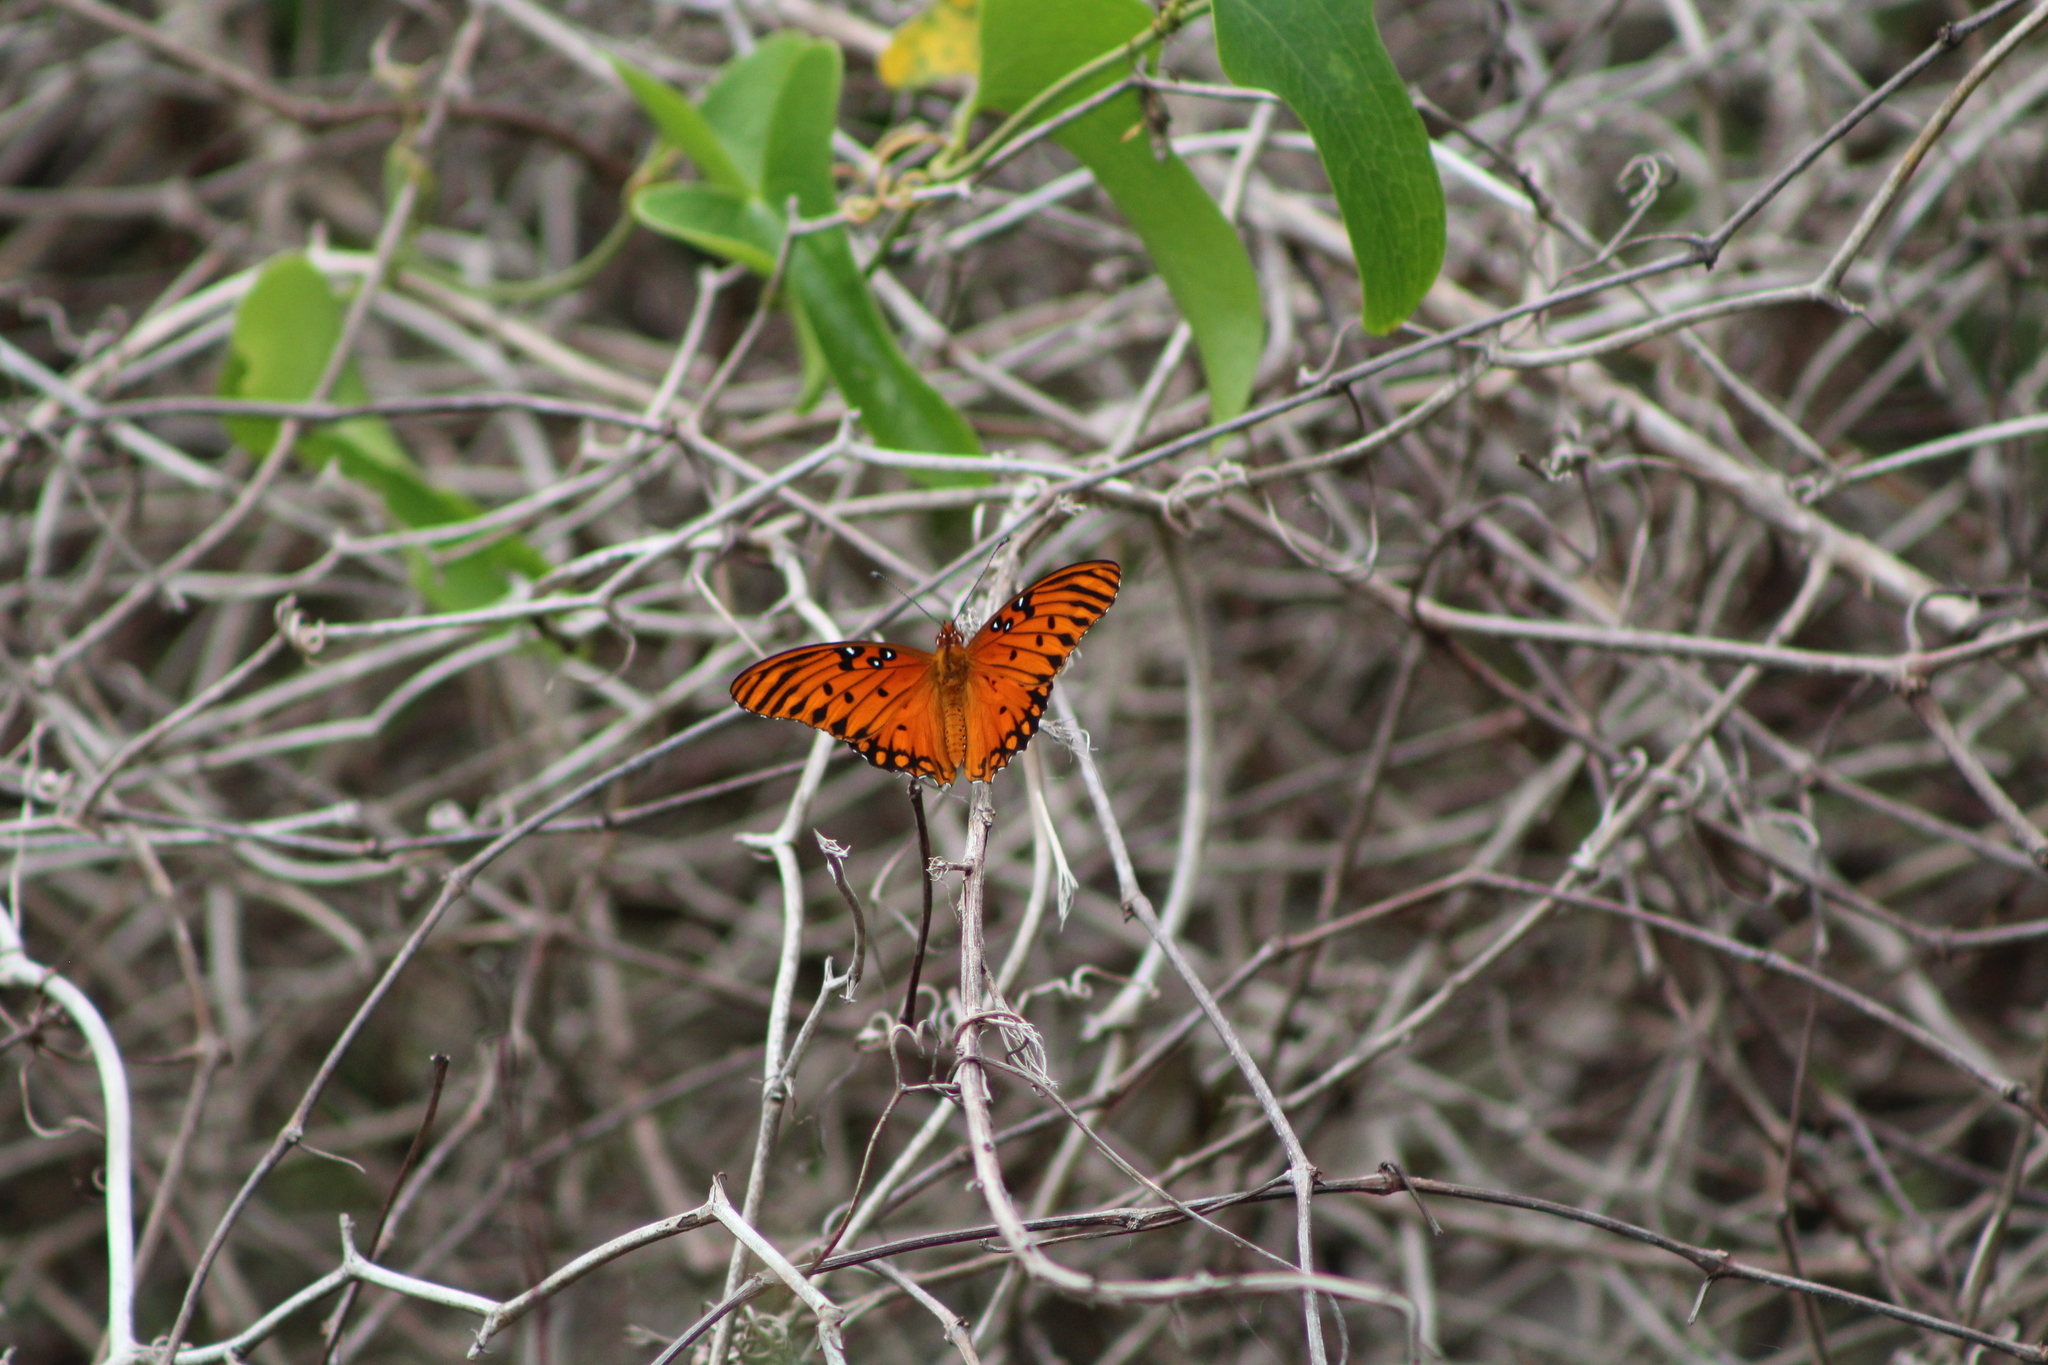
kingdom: Animalia
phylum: Arthropoda
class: Insecta
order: Lepidoptera
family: Nymphalidae
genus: Dione
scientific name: Dione vanillae
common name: Gulf fritillary
